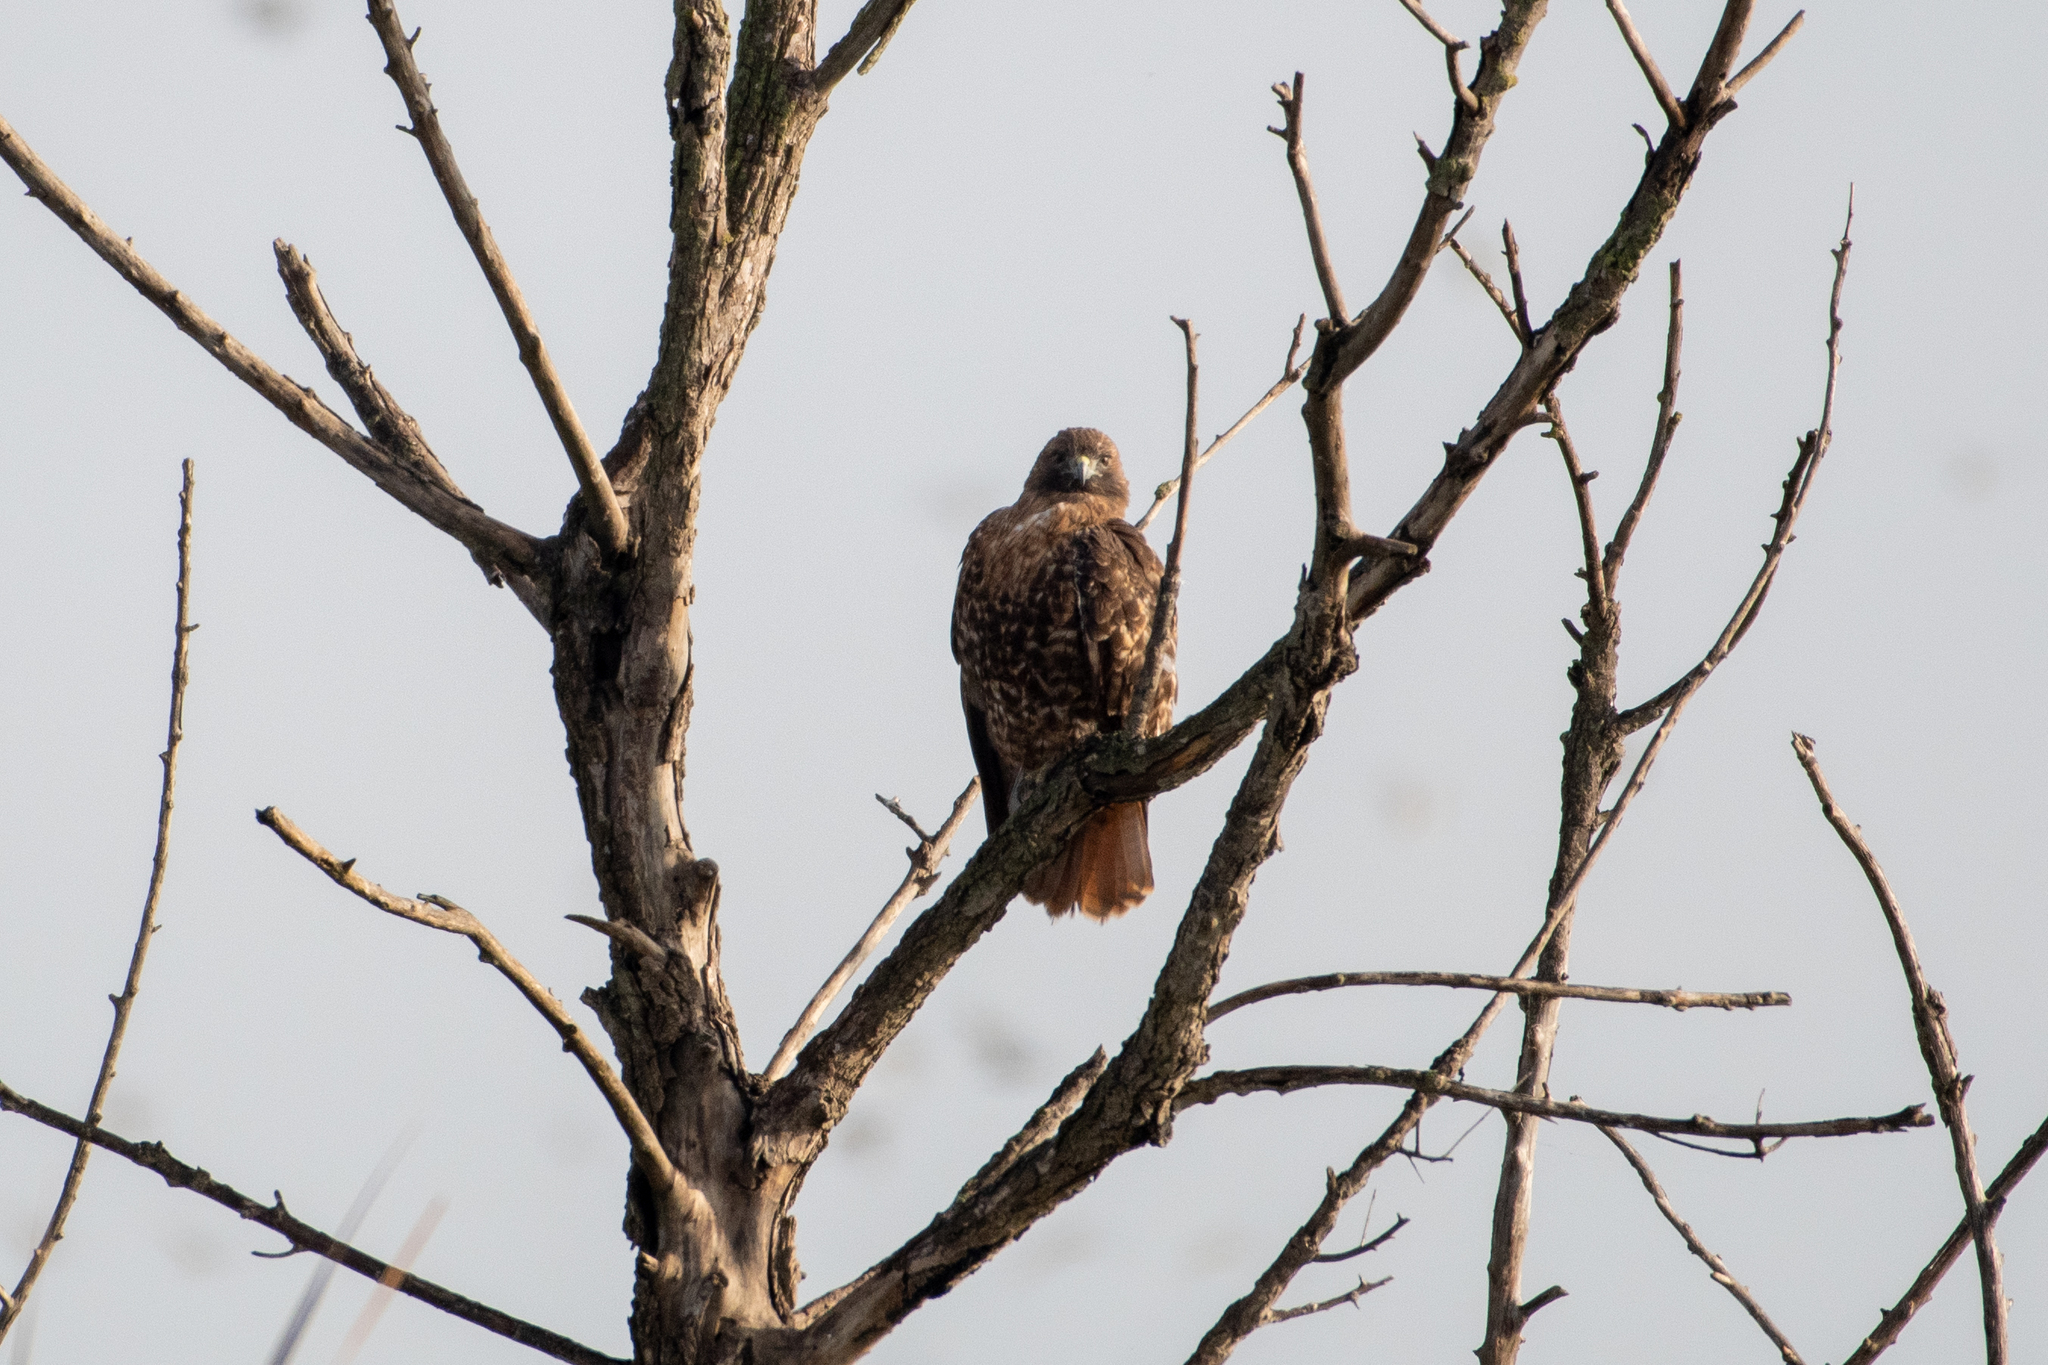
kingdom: Animalia
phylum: Chordata
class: Aves
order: Accipitriformes
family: Accipitridae
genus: Buteo
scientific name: Buteo jamaicensis
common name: Red-tailed hawk
